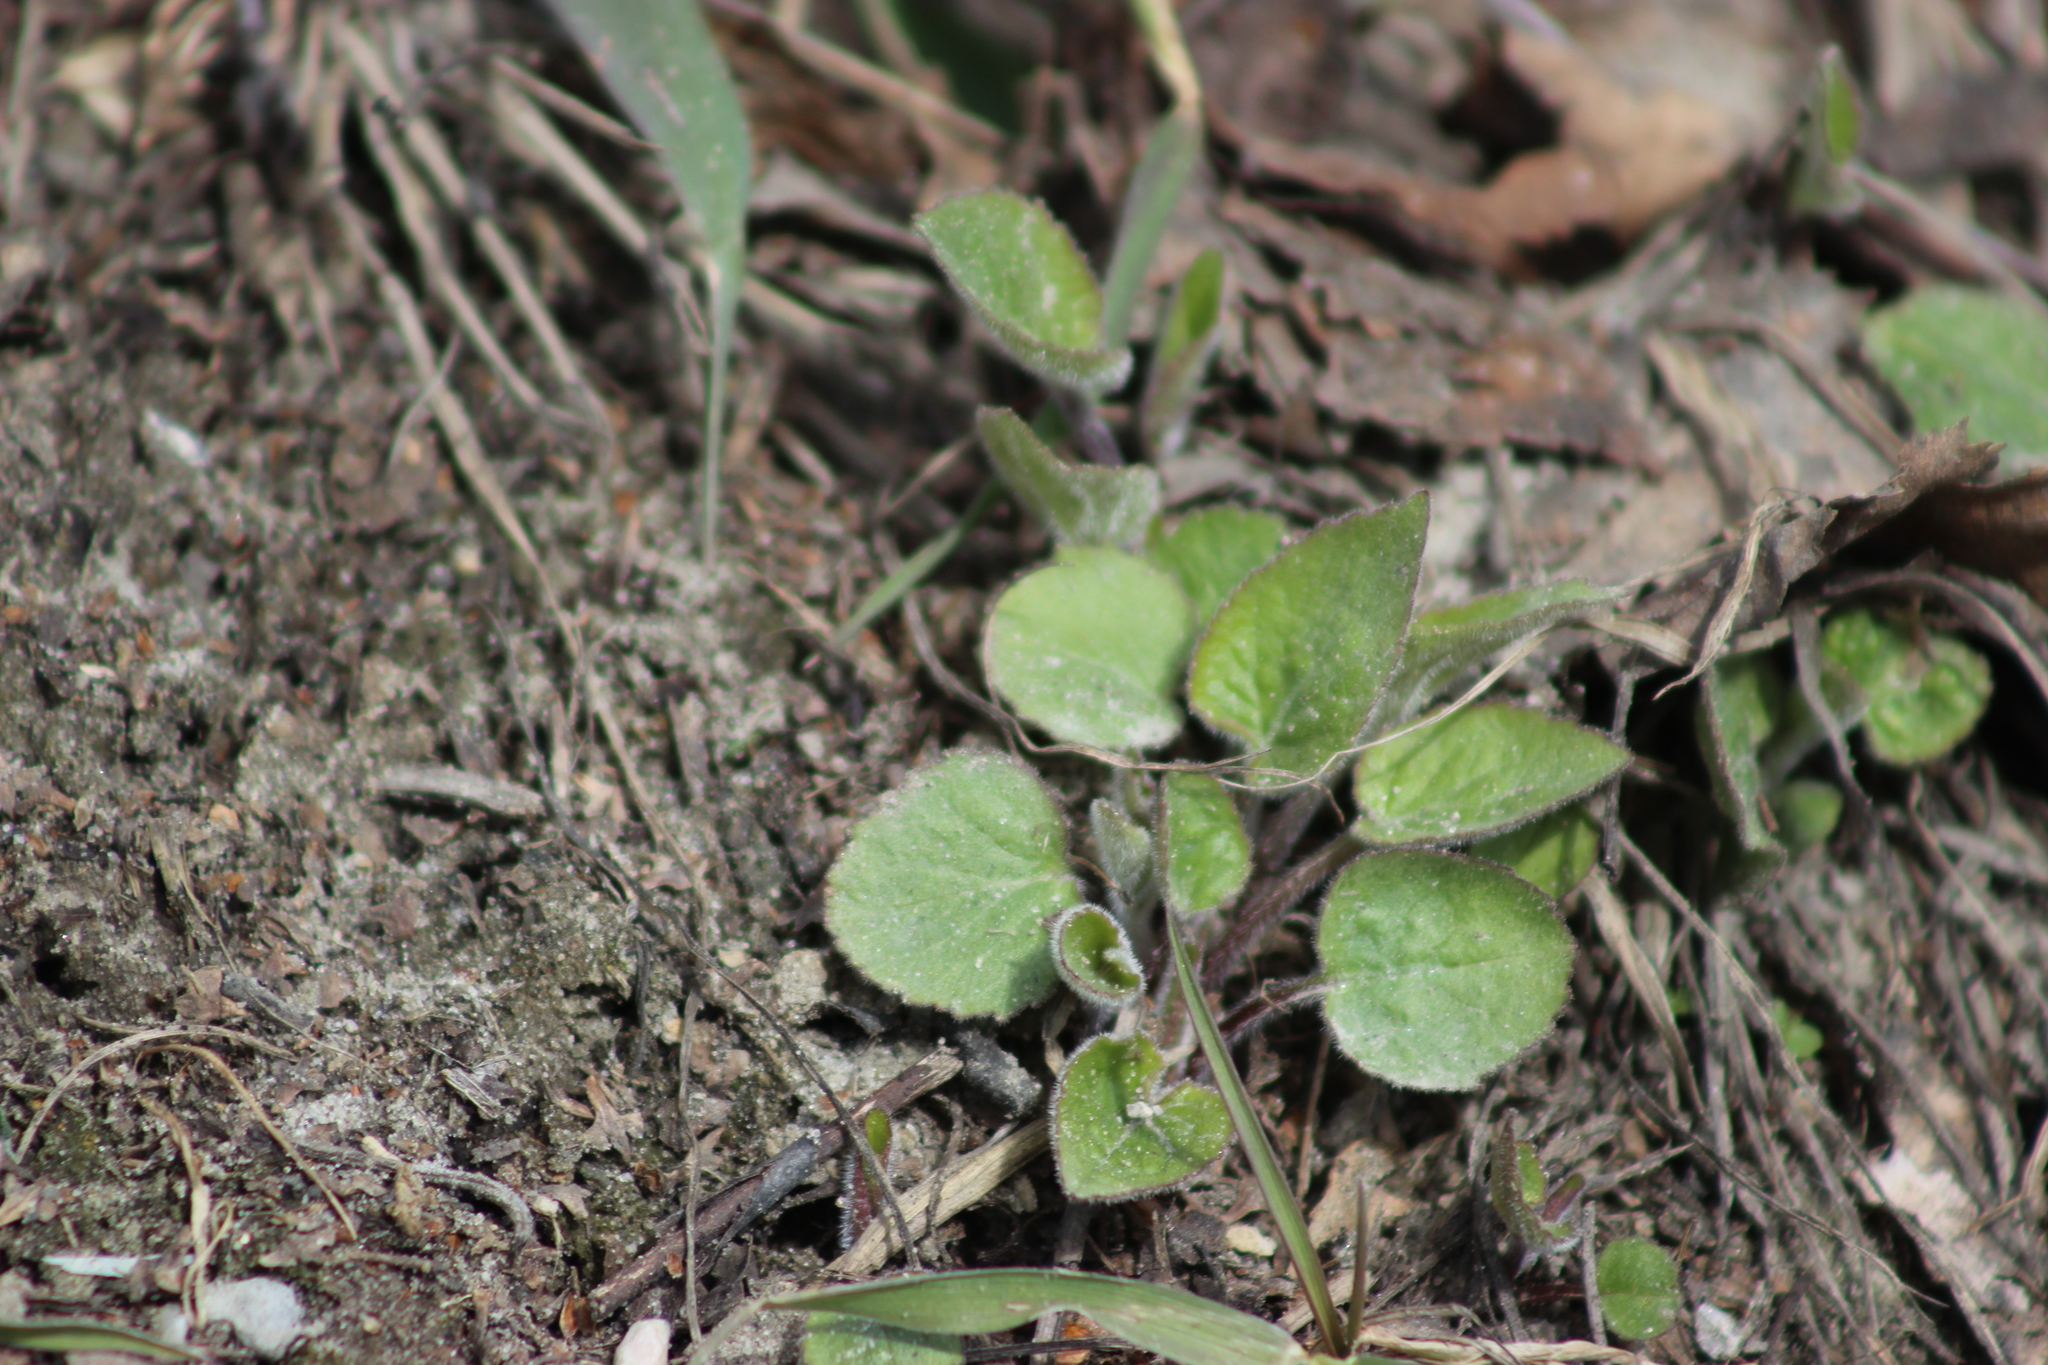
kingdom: Plantae
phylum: Tracheophyta
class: Magnoliopsida
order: Asterales
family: Campanulaceae
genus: Campanula
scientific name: Campanula rapunculoides
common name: Creeping bellflower
